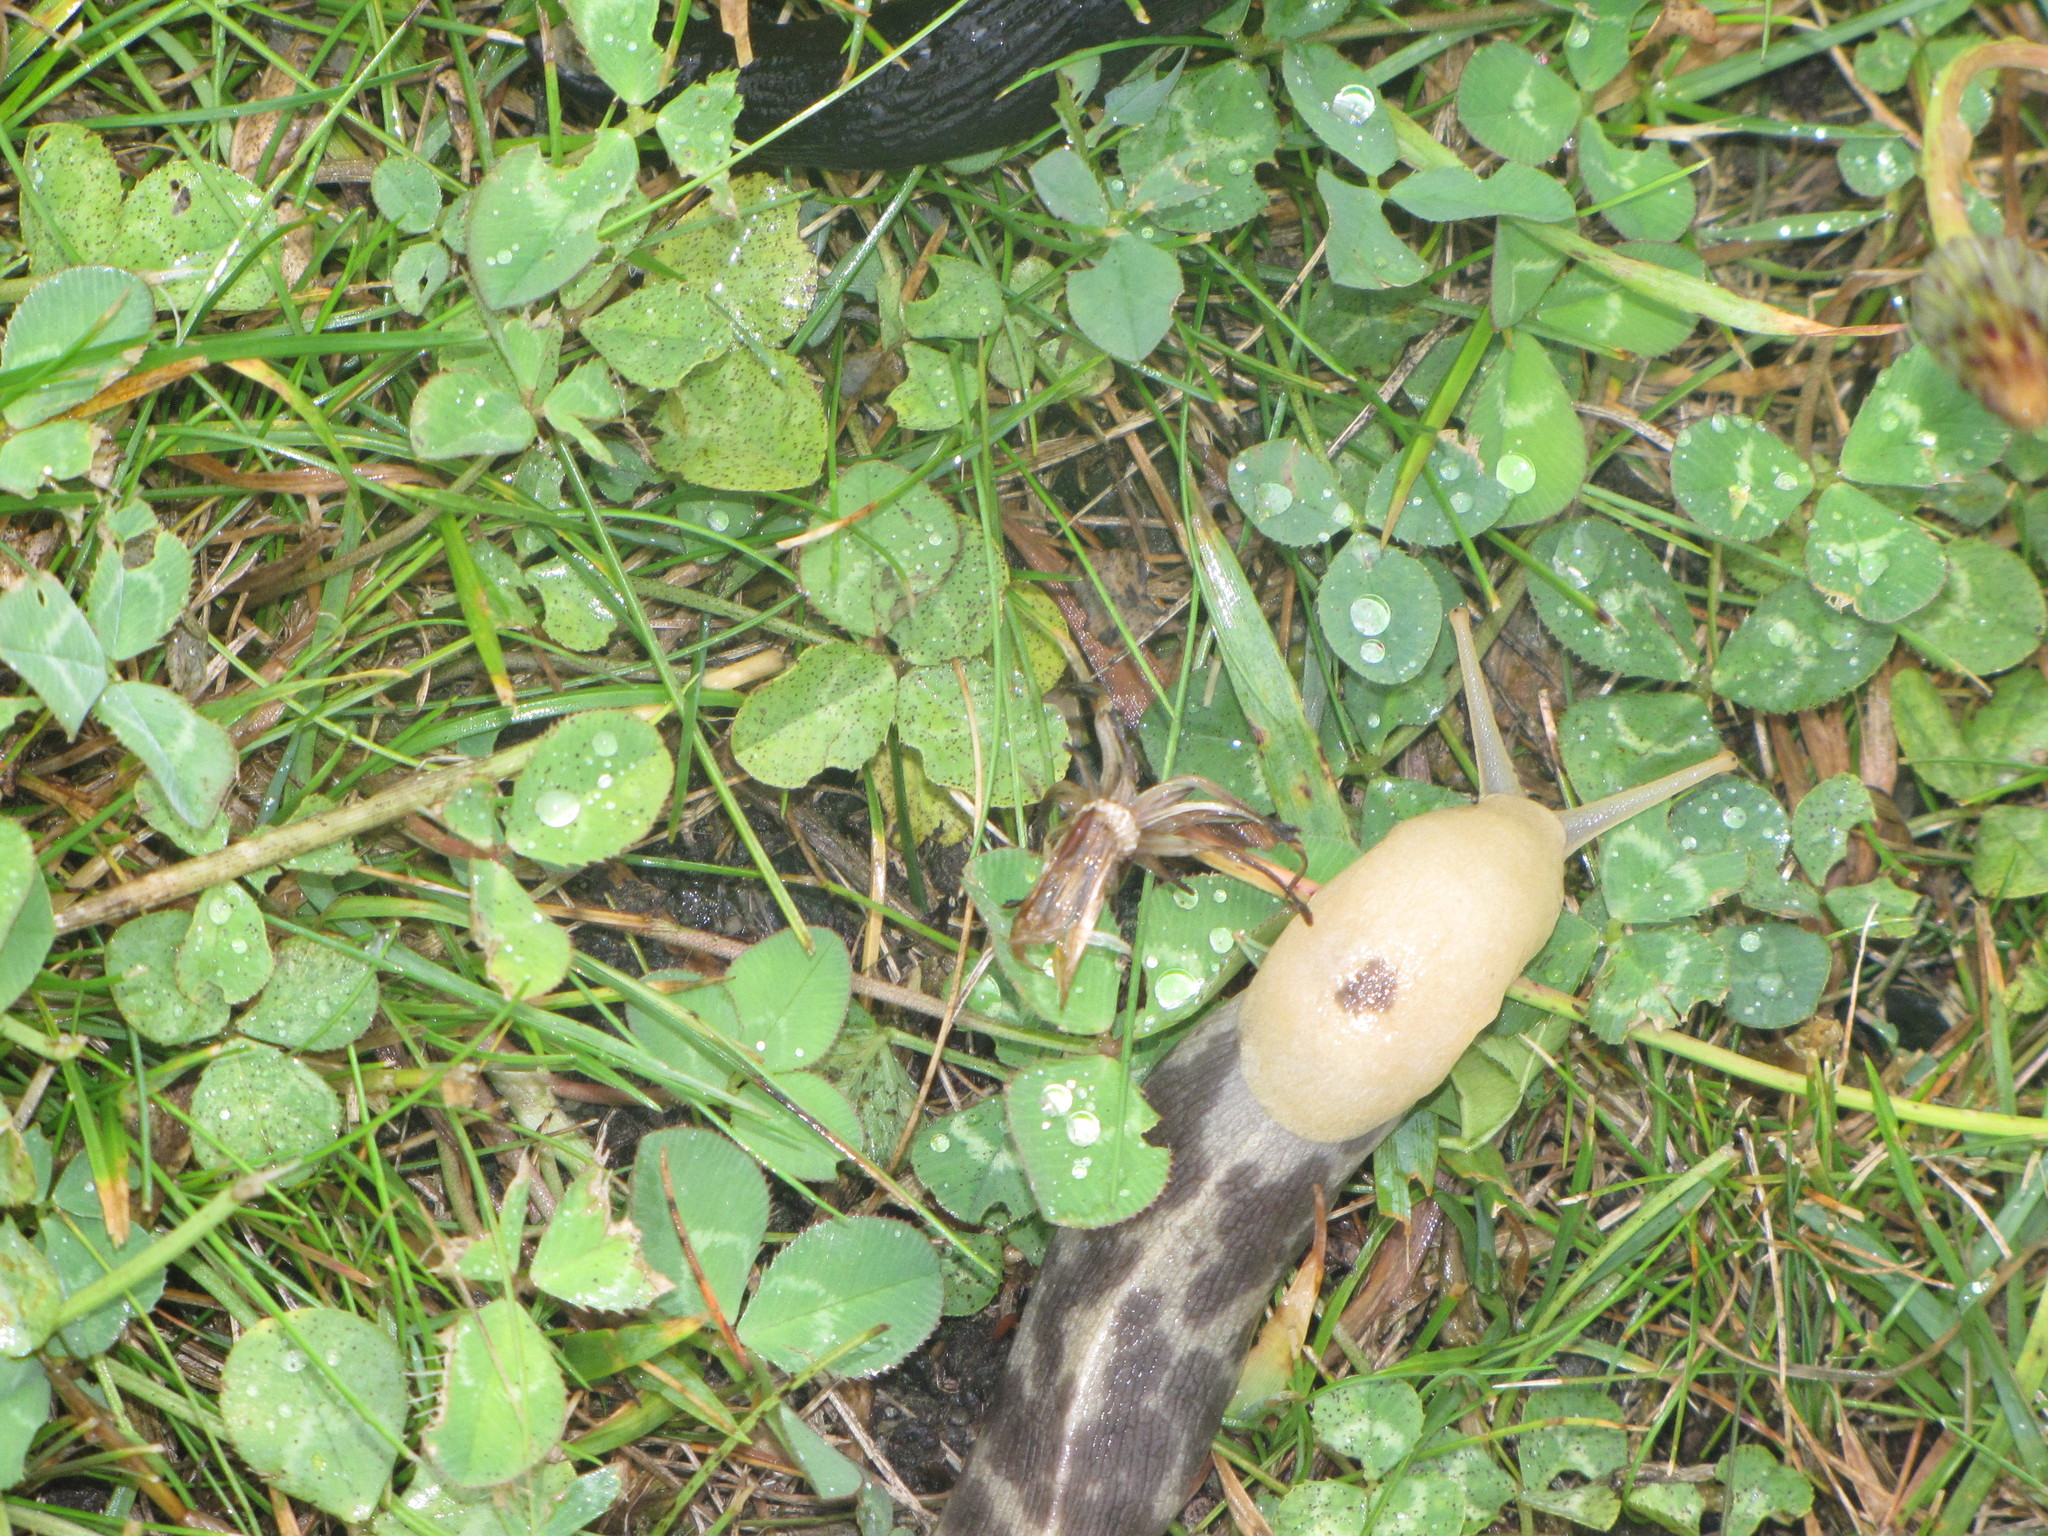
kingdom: Animalia
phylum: Mollusca
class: Gastropoda
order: Stylommatophora
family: Ariolimacidae
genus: Ariolimax
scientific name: Ariolimax columbianus
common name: Pacific banana slug
